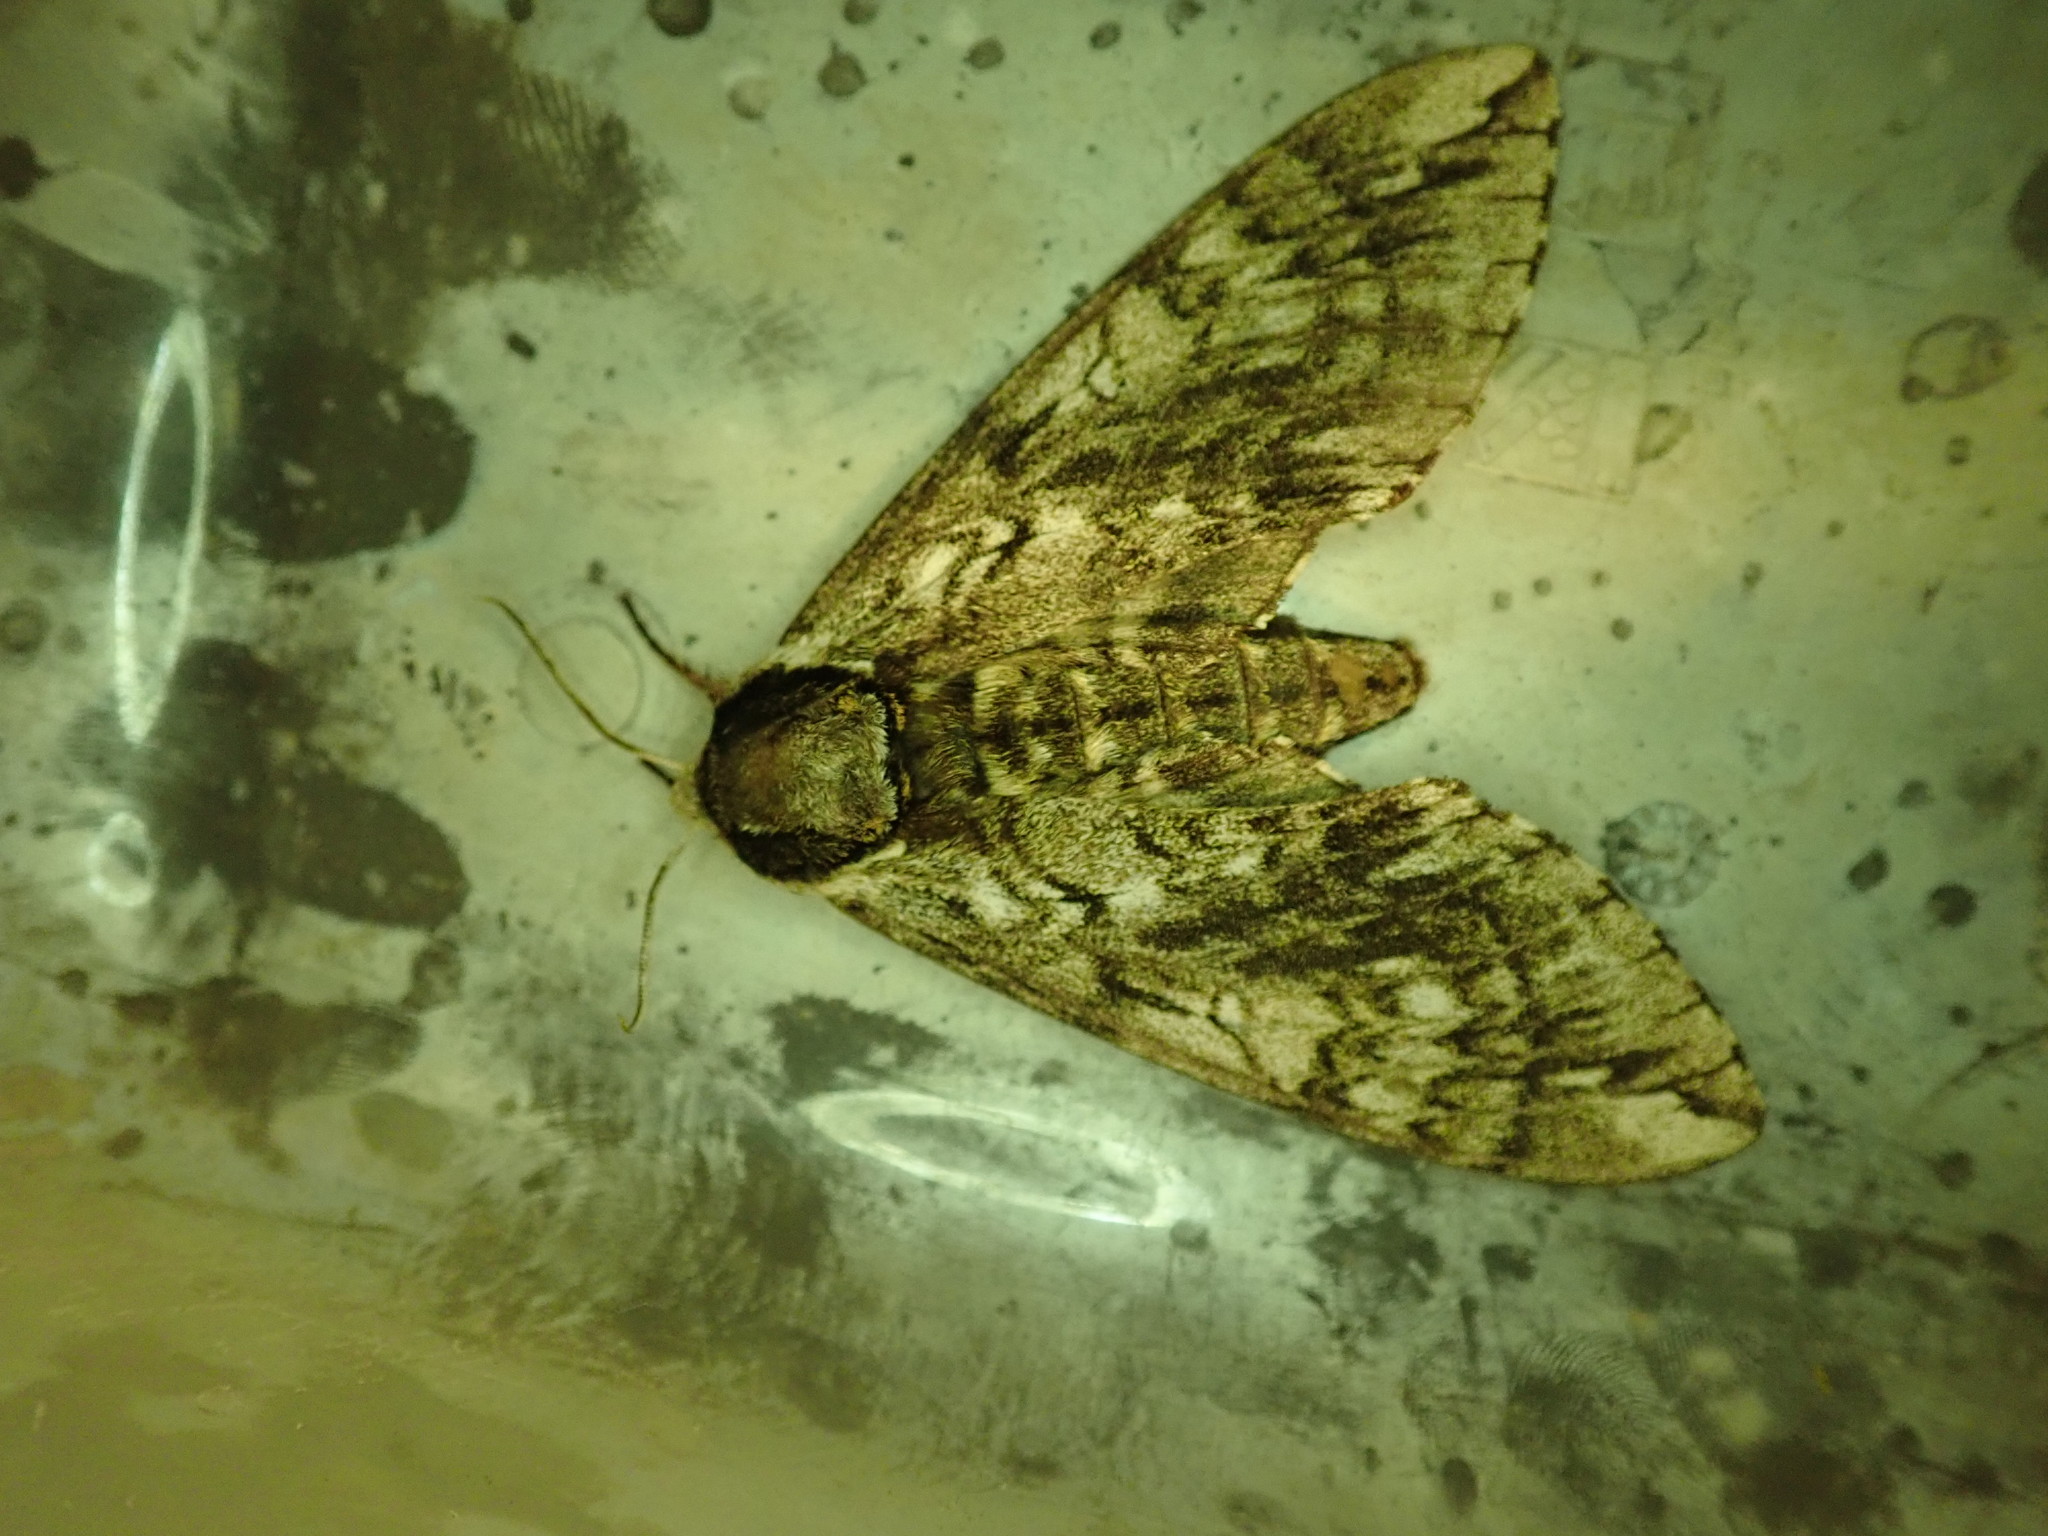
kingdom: Animalia
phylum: Arthropoda
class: Insecta
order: Lepidoptera
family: Sphingidae
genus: Ceratomia
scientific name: Ceratomia undulosa
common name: Waved sphinx
